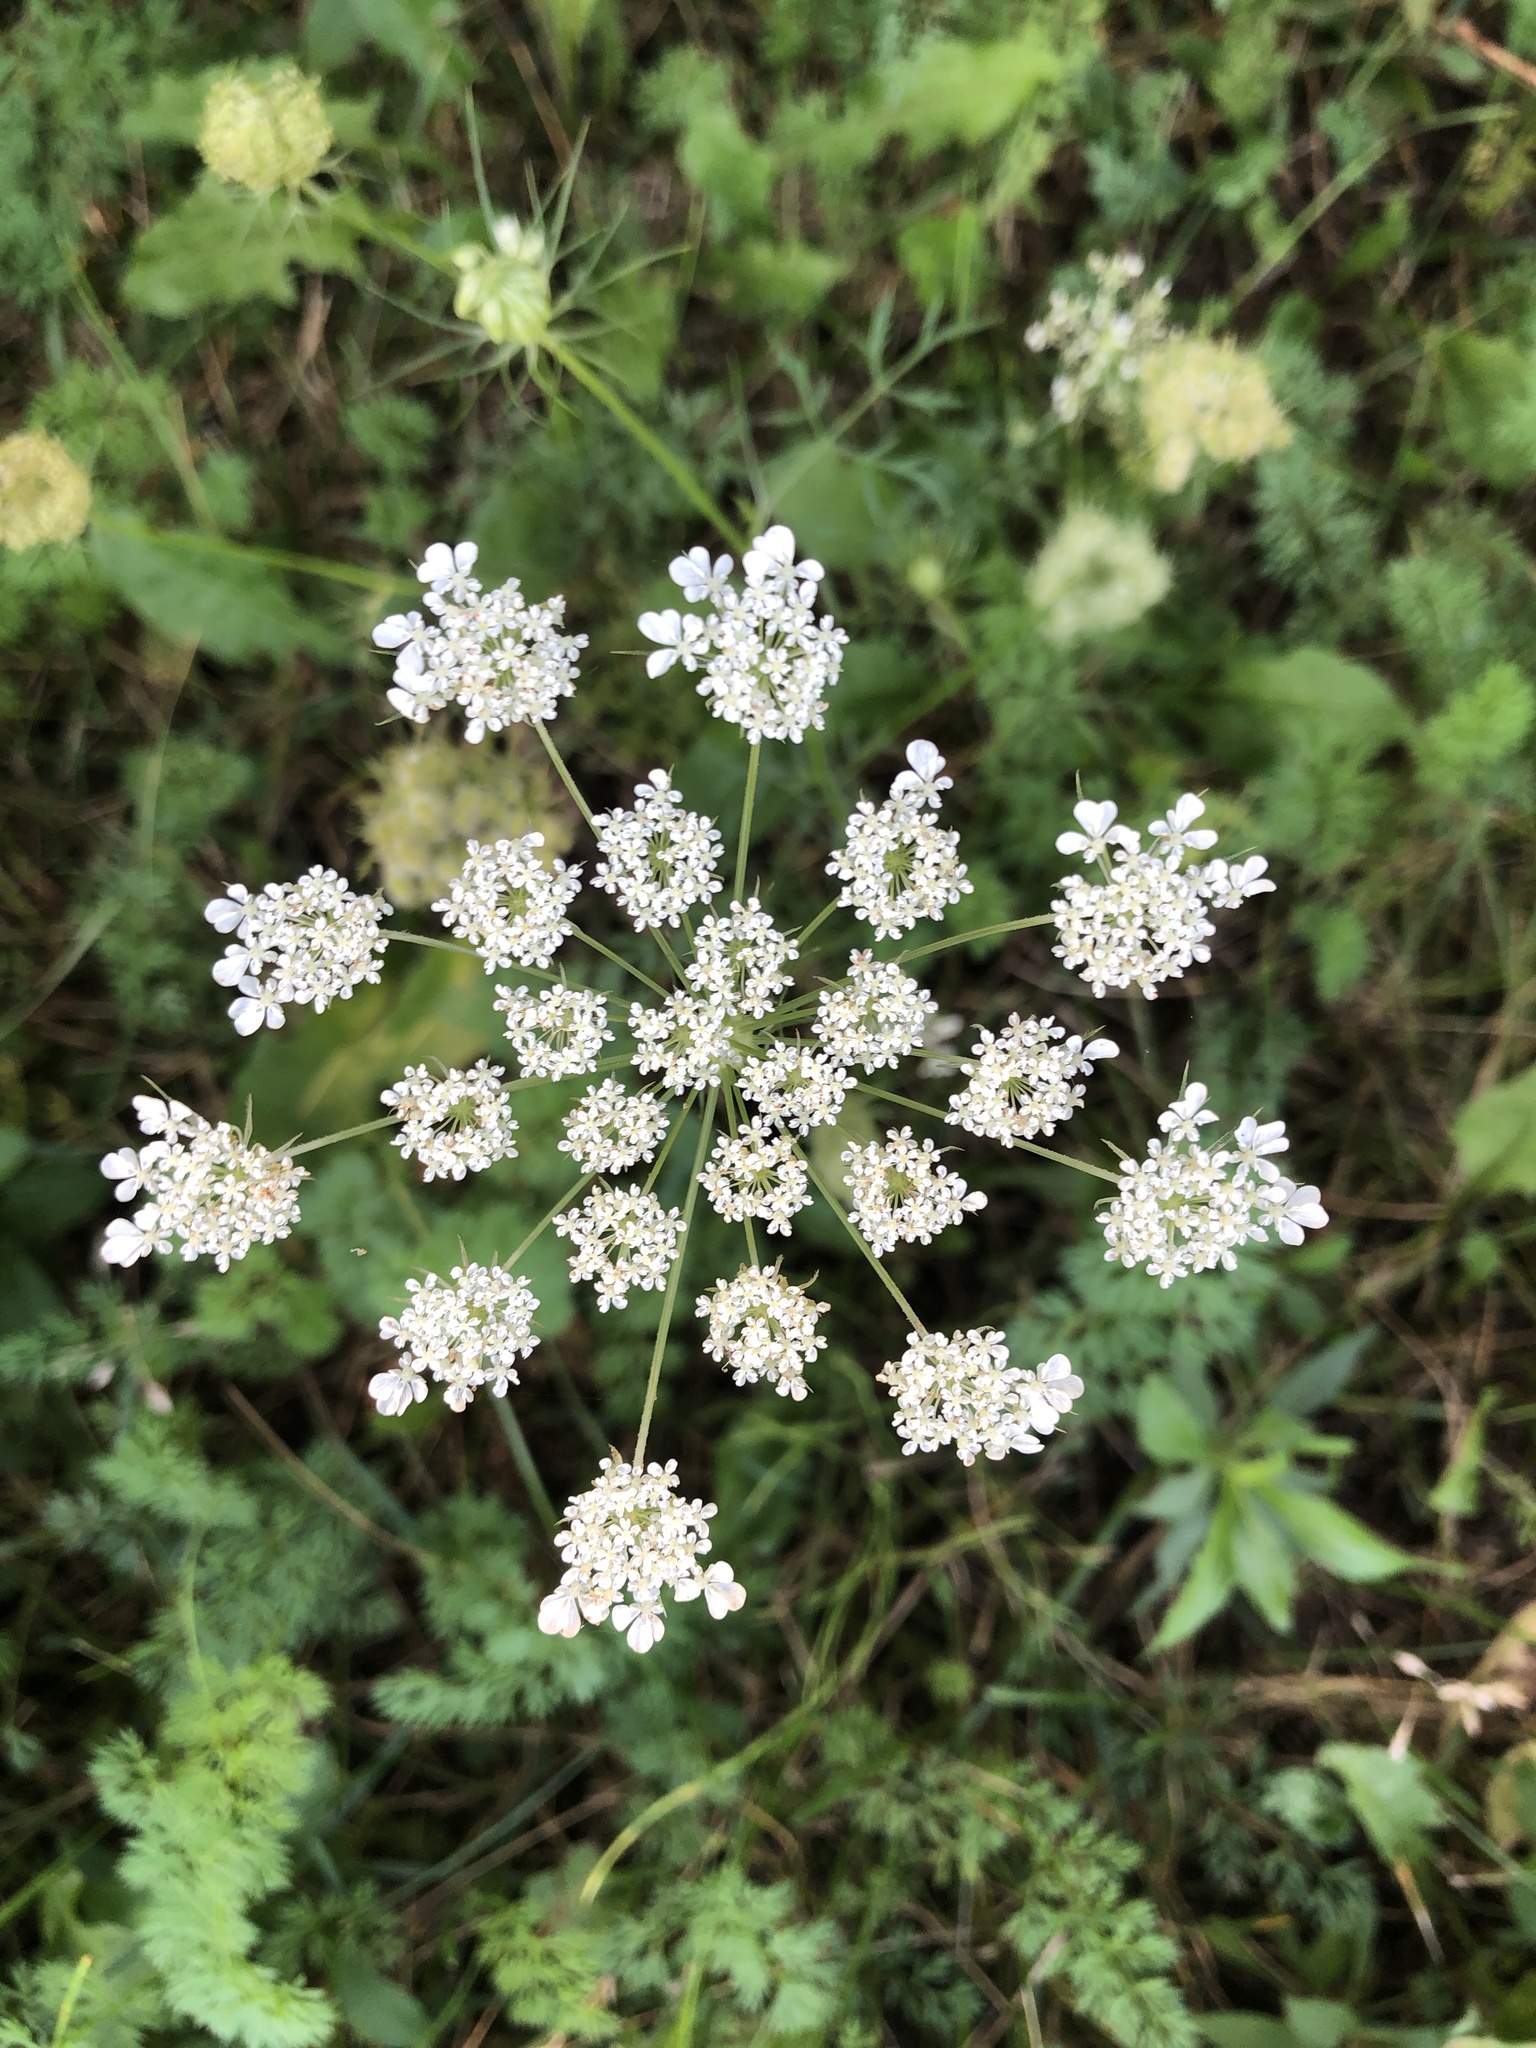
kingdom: Plantae
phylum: Tracheophyta
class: Magnoliopsida
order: Apiales
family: Apiaceae
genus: Daucus
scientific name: Daucus carota
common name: Wild carrot
